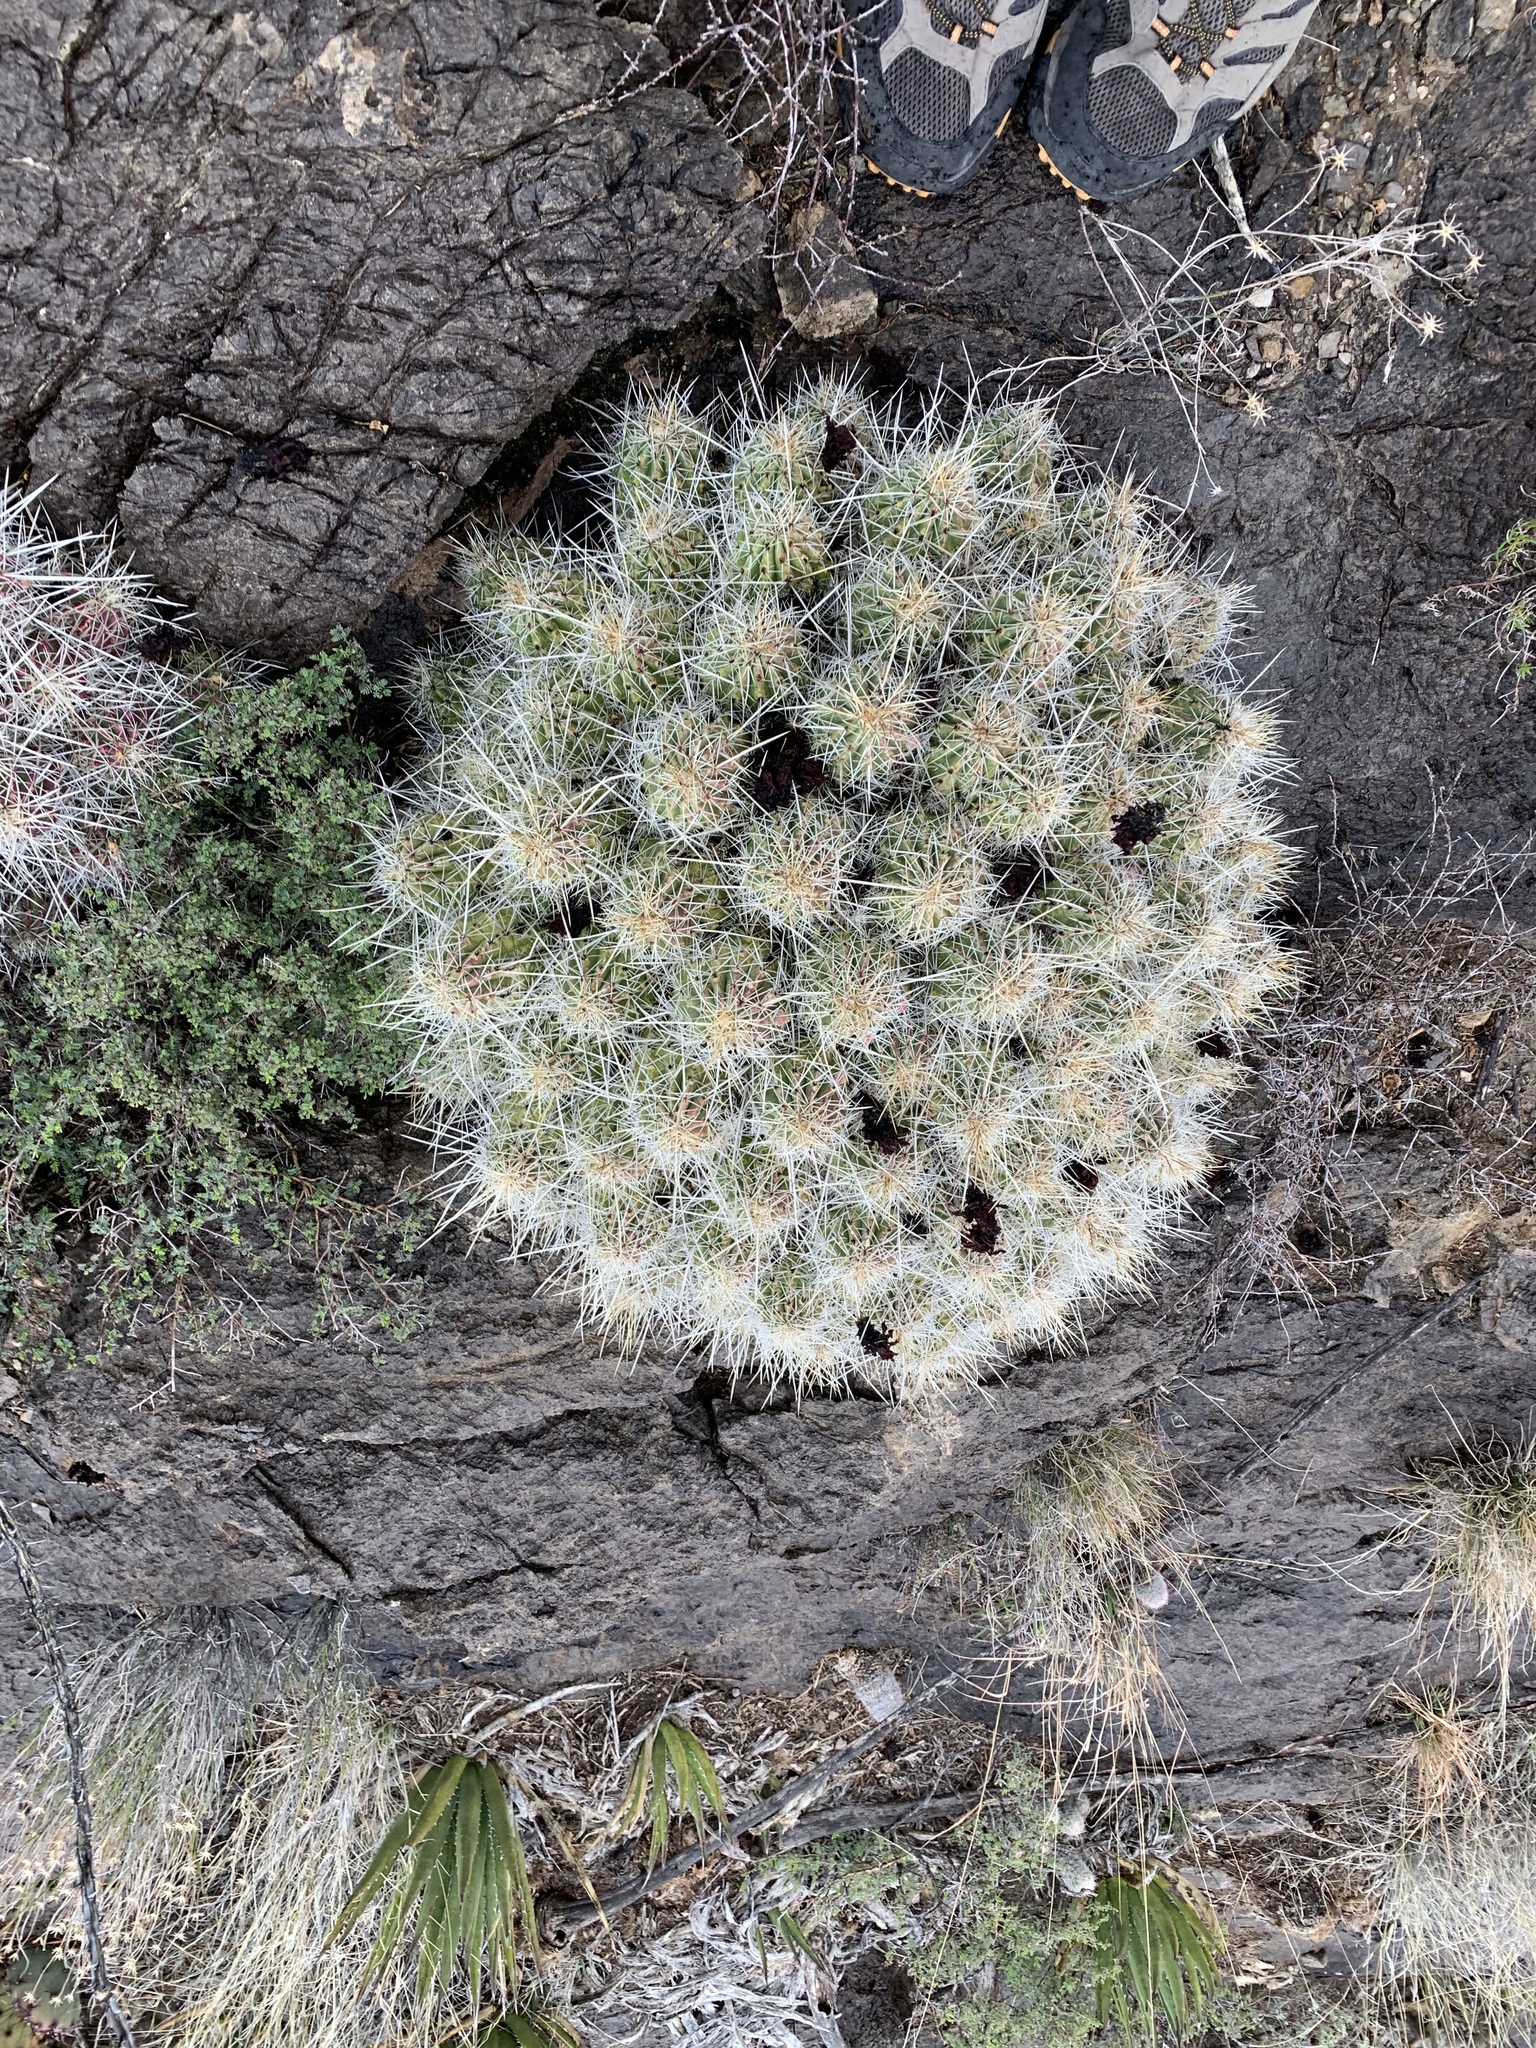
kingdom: Plantae
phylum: Tracheophyta
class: Magnoliopsida
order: Caryophyllales
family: Cactaceae
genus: Echinocereus
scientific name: Echinocereus stramineus
